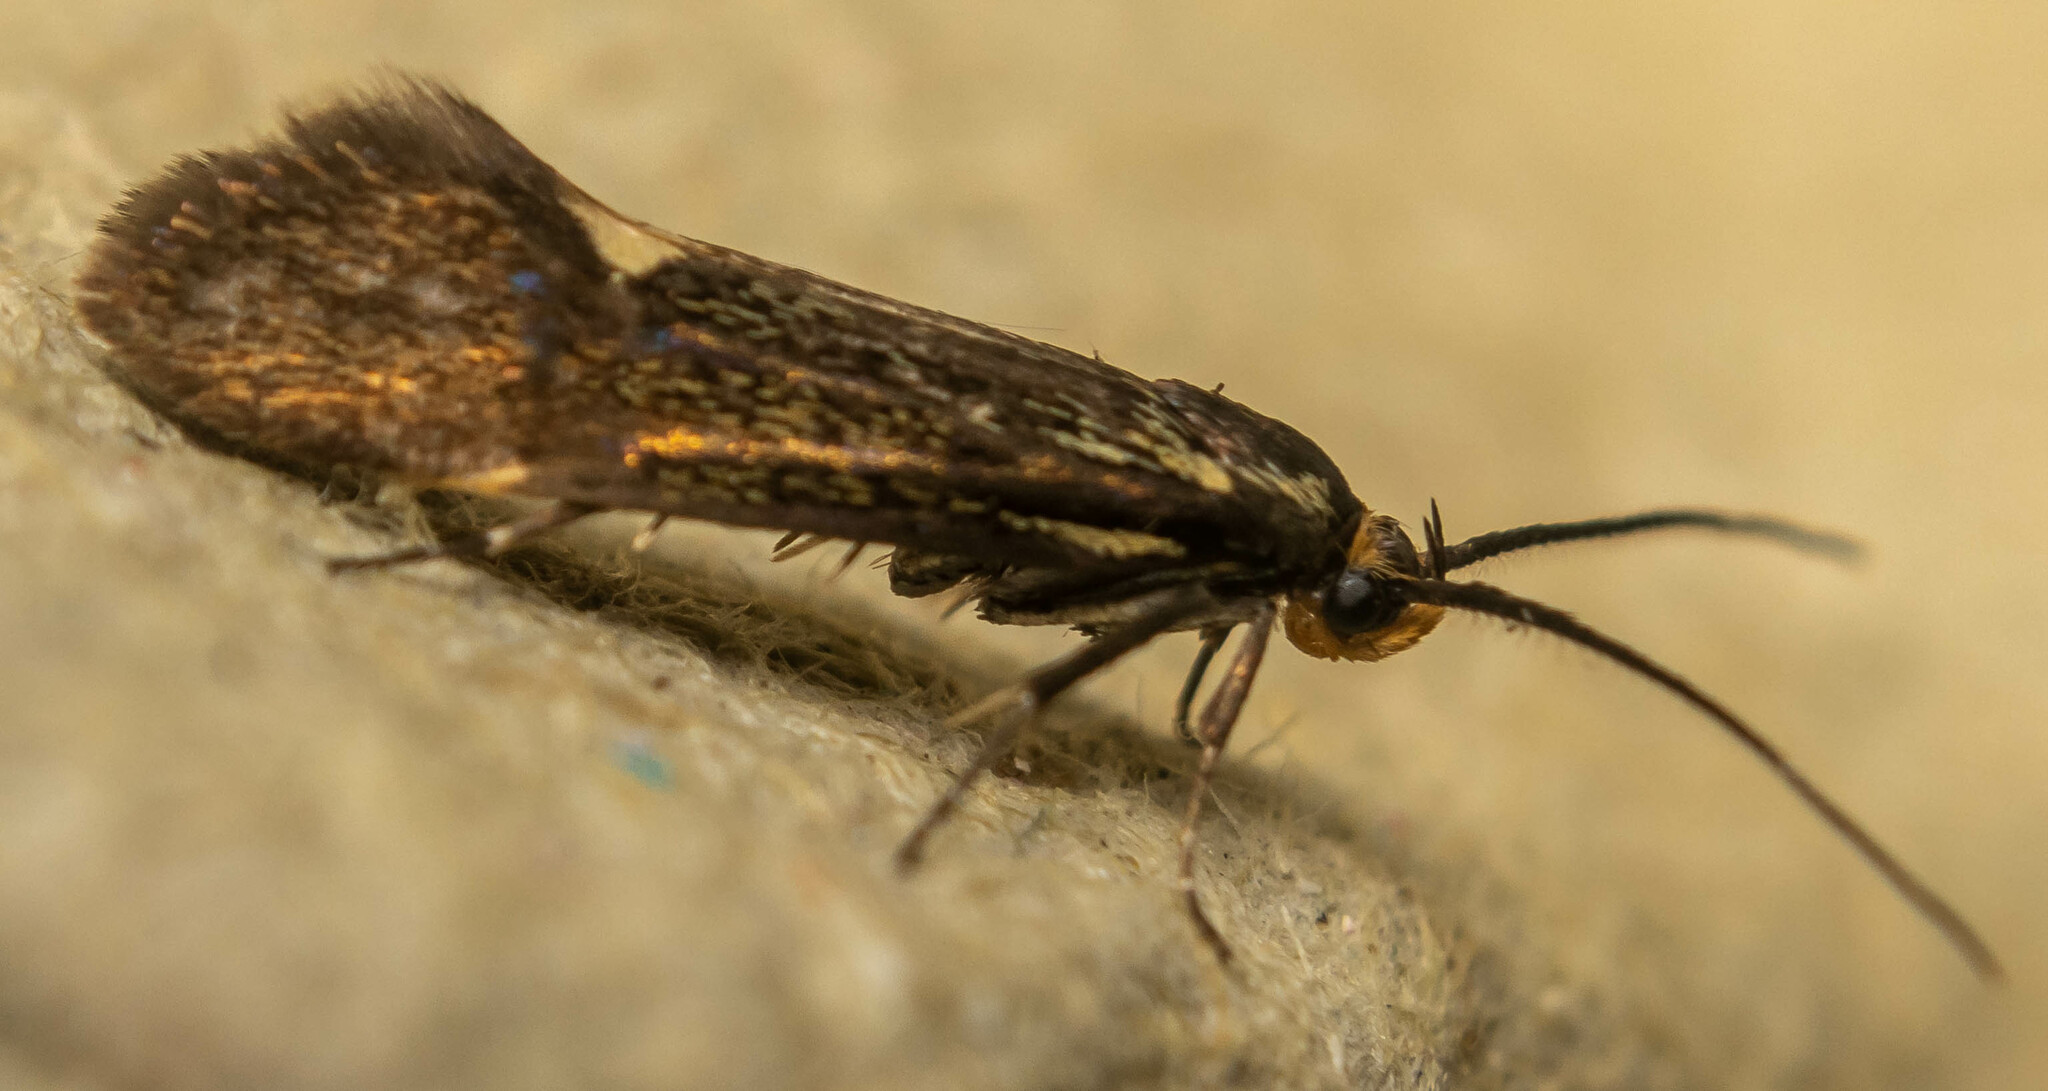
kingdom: Animalia
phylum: Arthropoda
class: Insecta
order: Lepidoptera
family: Oecophoridae
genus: Dafa
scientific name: Dafa Esperia sulphurella
